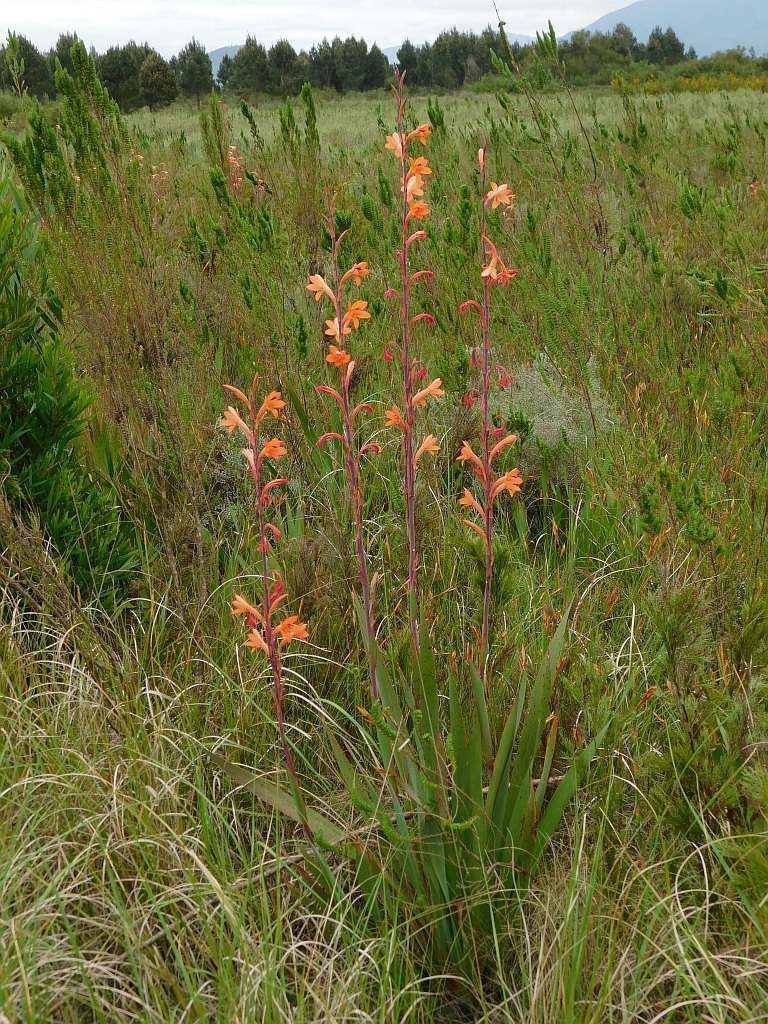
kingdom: Plantae
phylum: Tracheophyta
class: Liliopsida
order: Asparagales
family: Iridaceae
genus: Watsonia
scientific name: Watsonia meriana
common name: Bulbil bugle-lily
